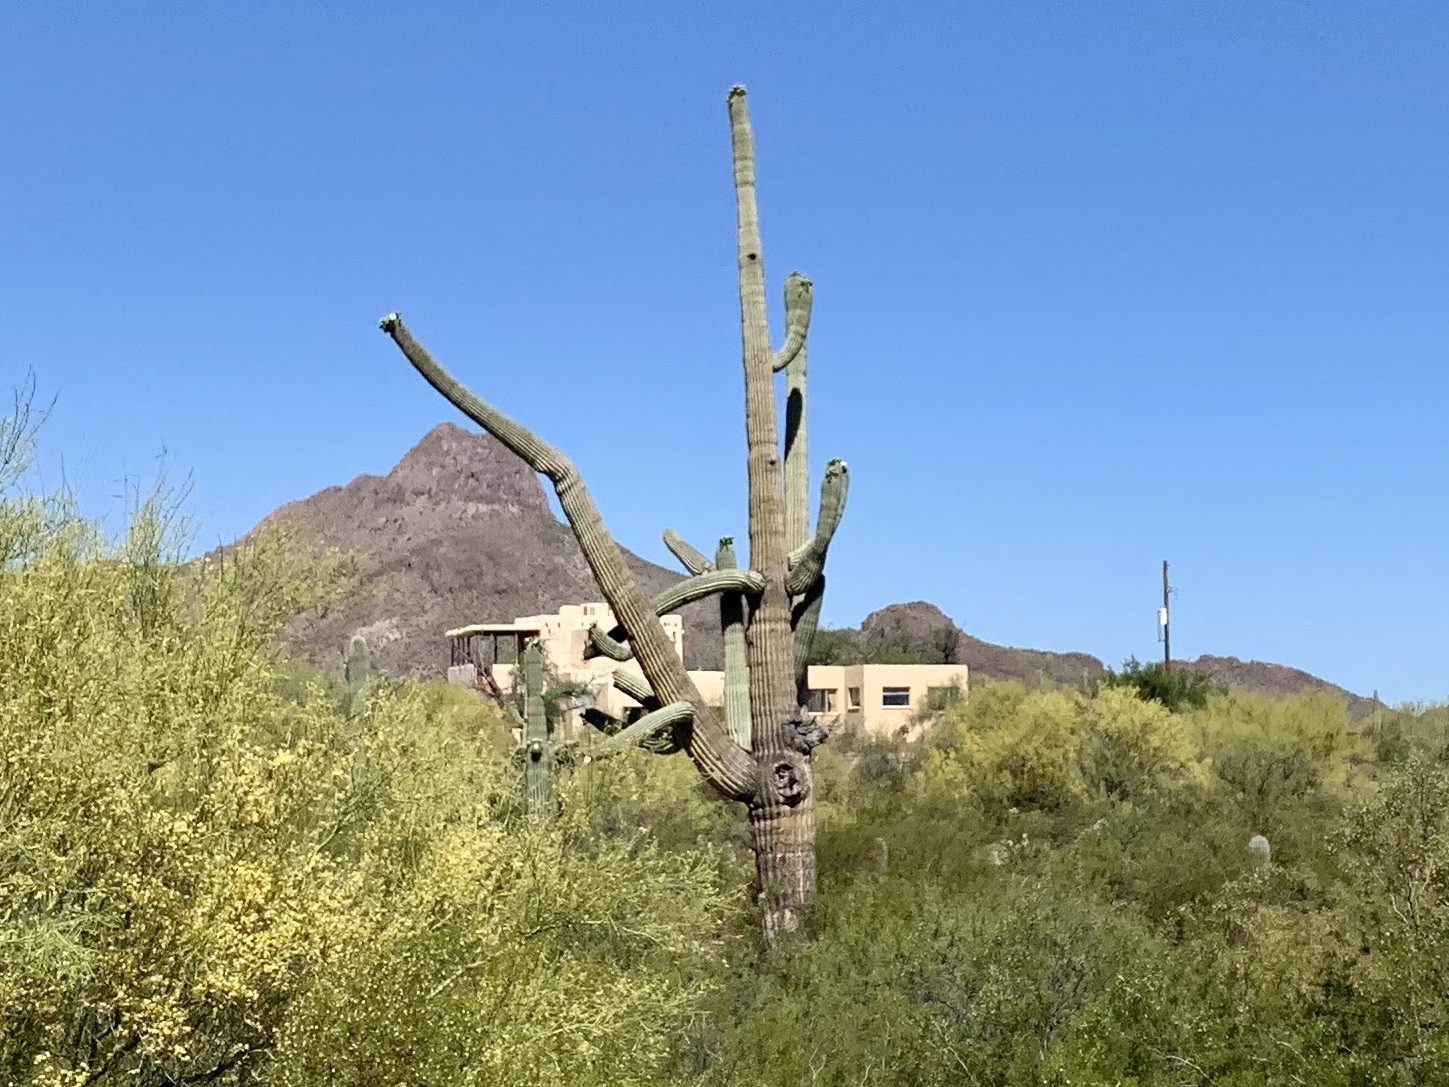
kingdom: Plantae
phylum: Tracheophyta
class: Magnoliopsida
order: Caryophyllales
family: Cactaceae
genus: Carnegiea
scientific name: Carnegiea gigantea
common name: Saguaro
